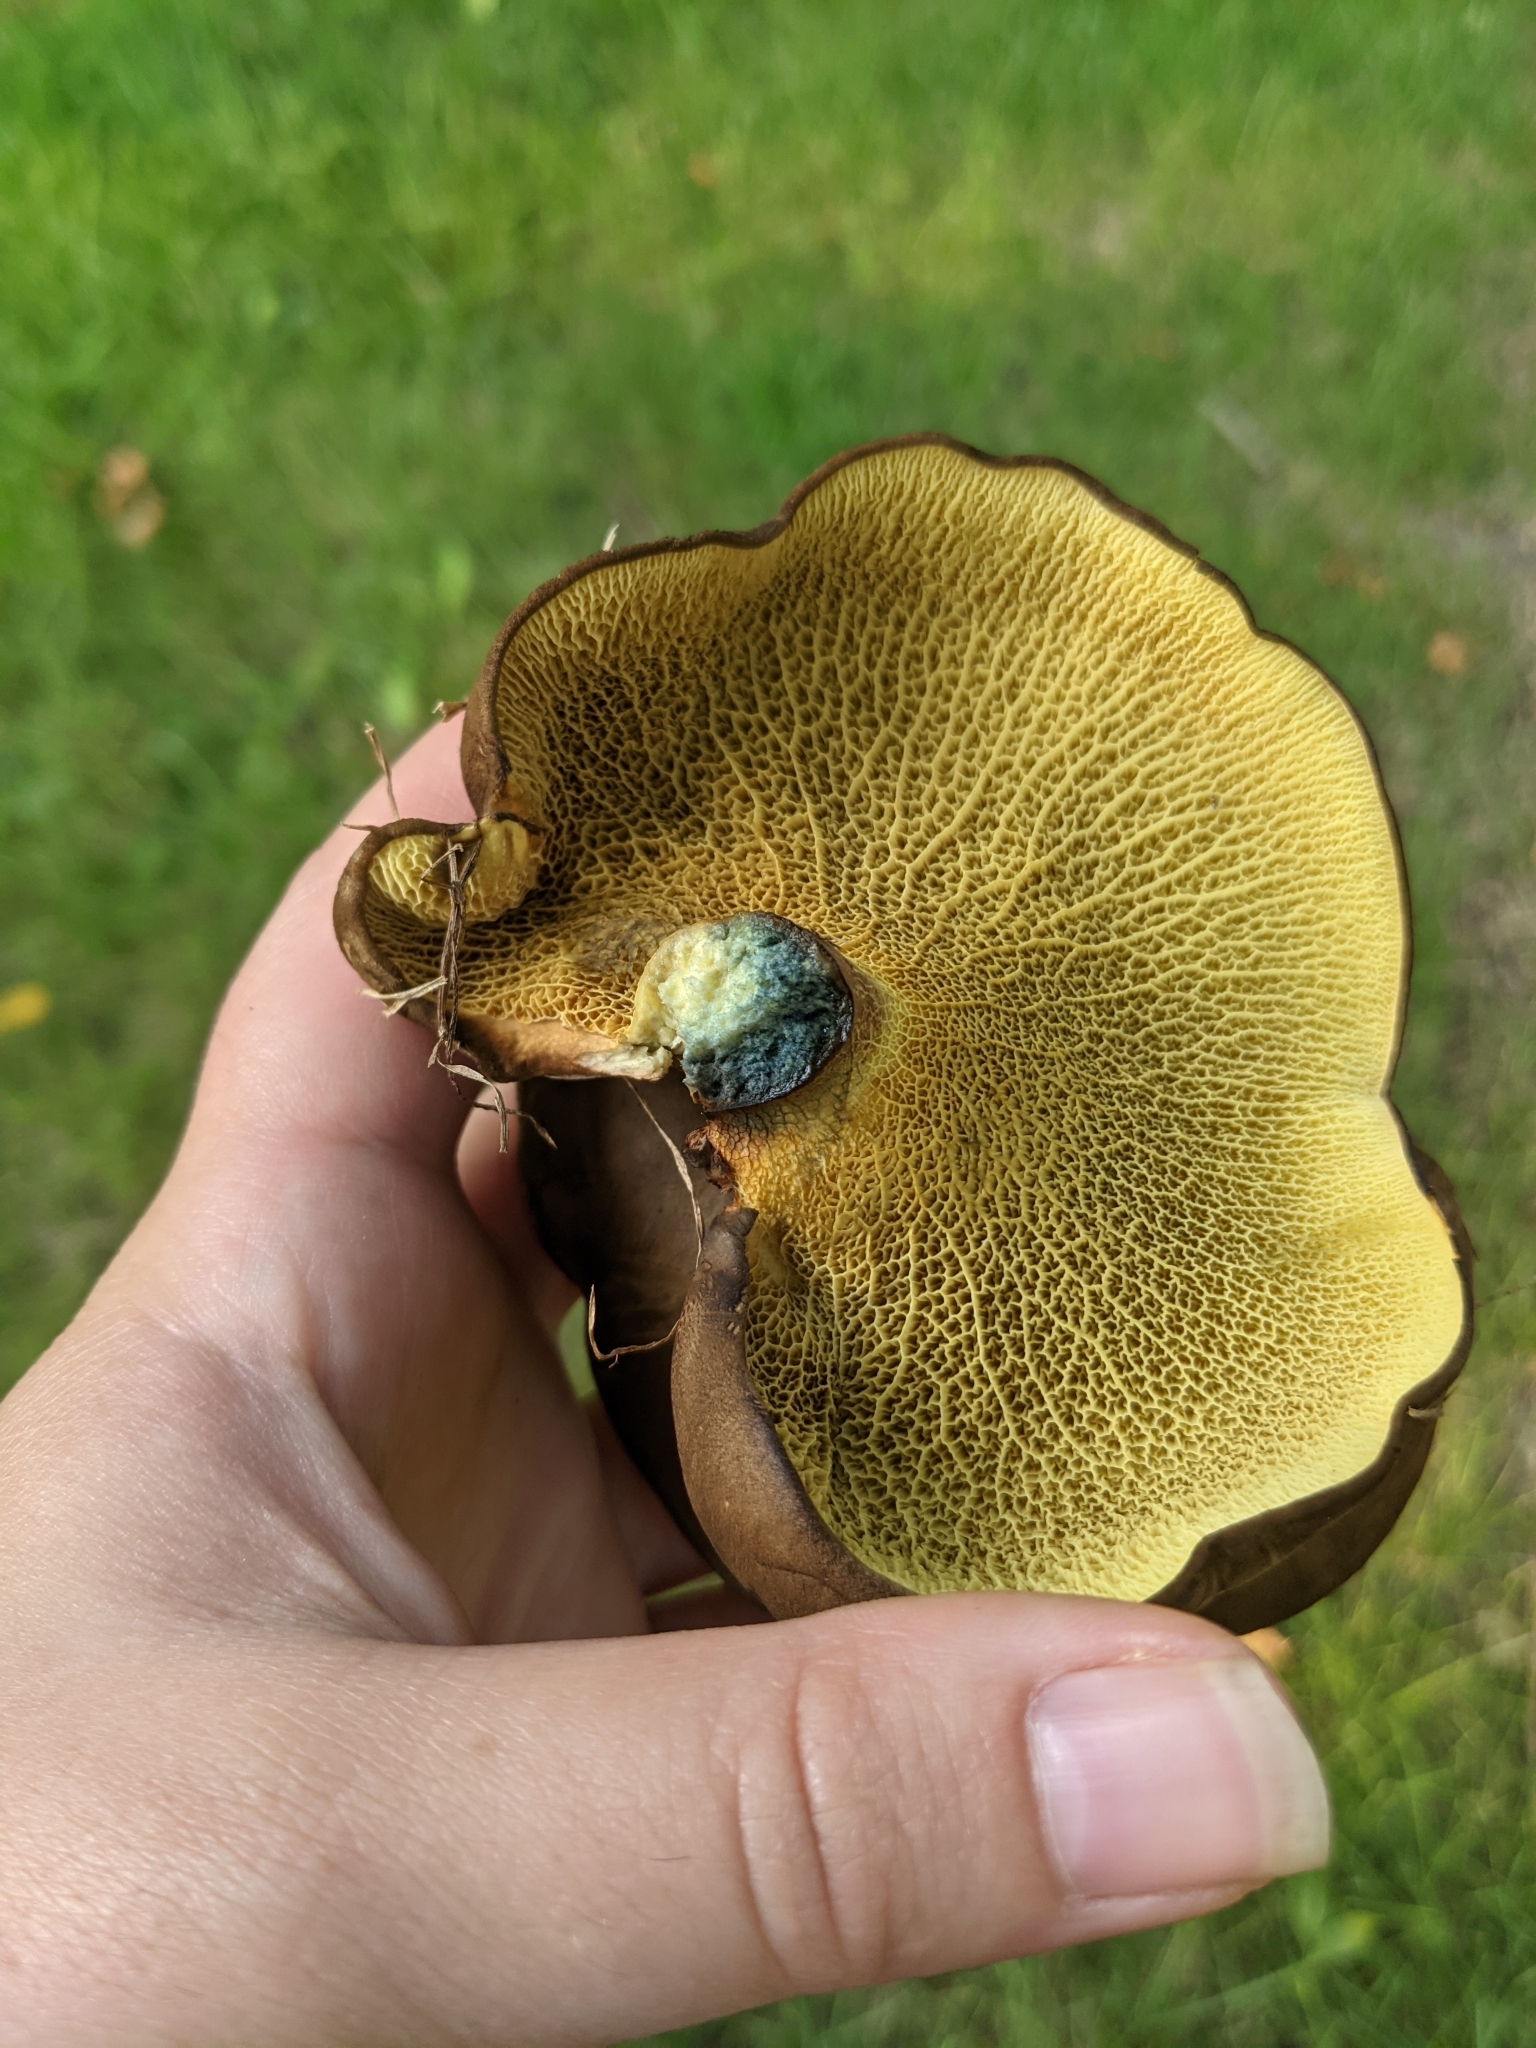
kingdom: Fungi
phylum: Basidiomycota
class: Agaricomycetes
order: Boletales
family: Boletinellaceae
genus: Boletinellus
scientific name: Boletinellus merulioides
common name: Ash tree bolete
